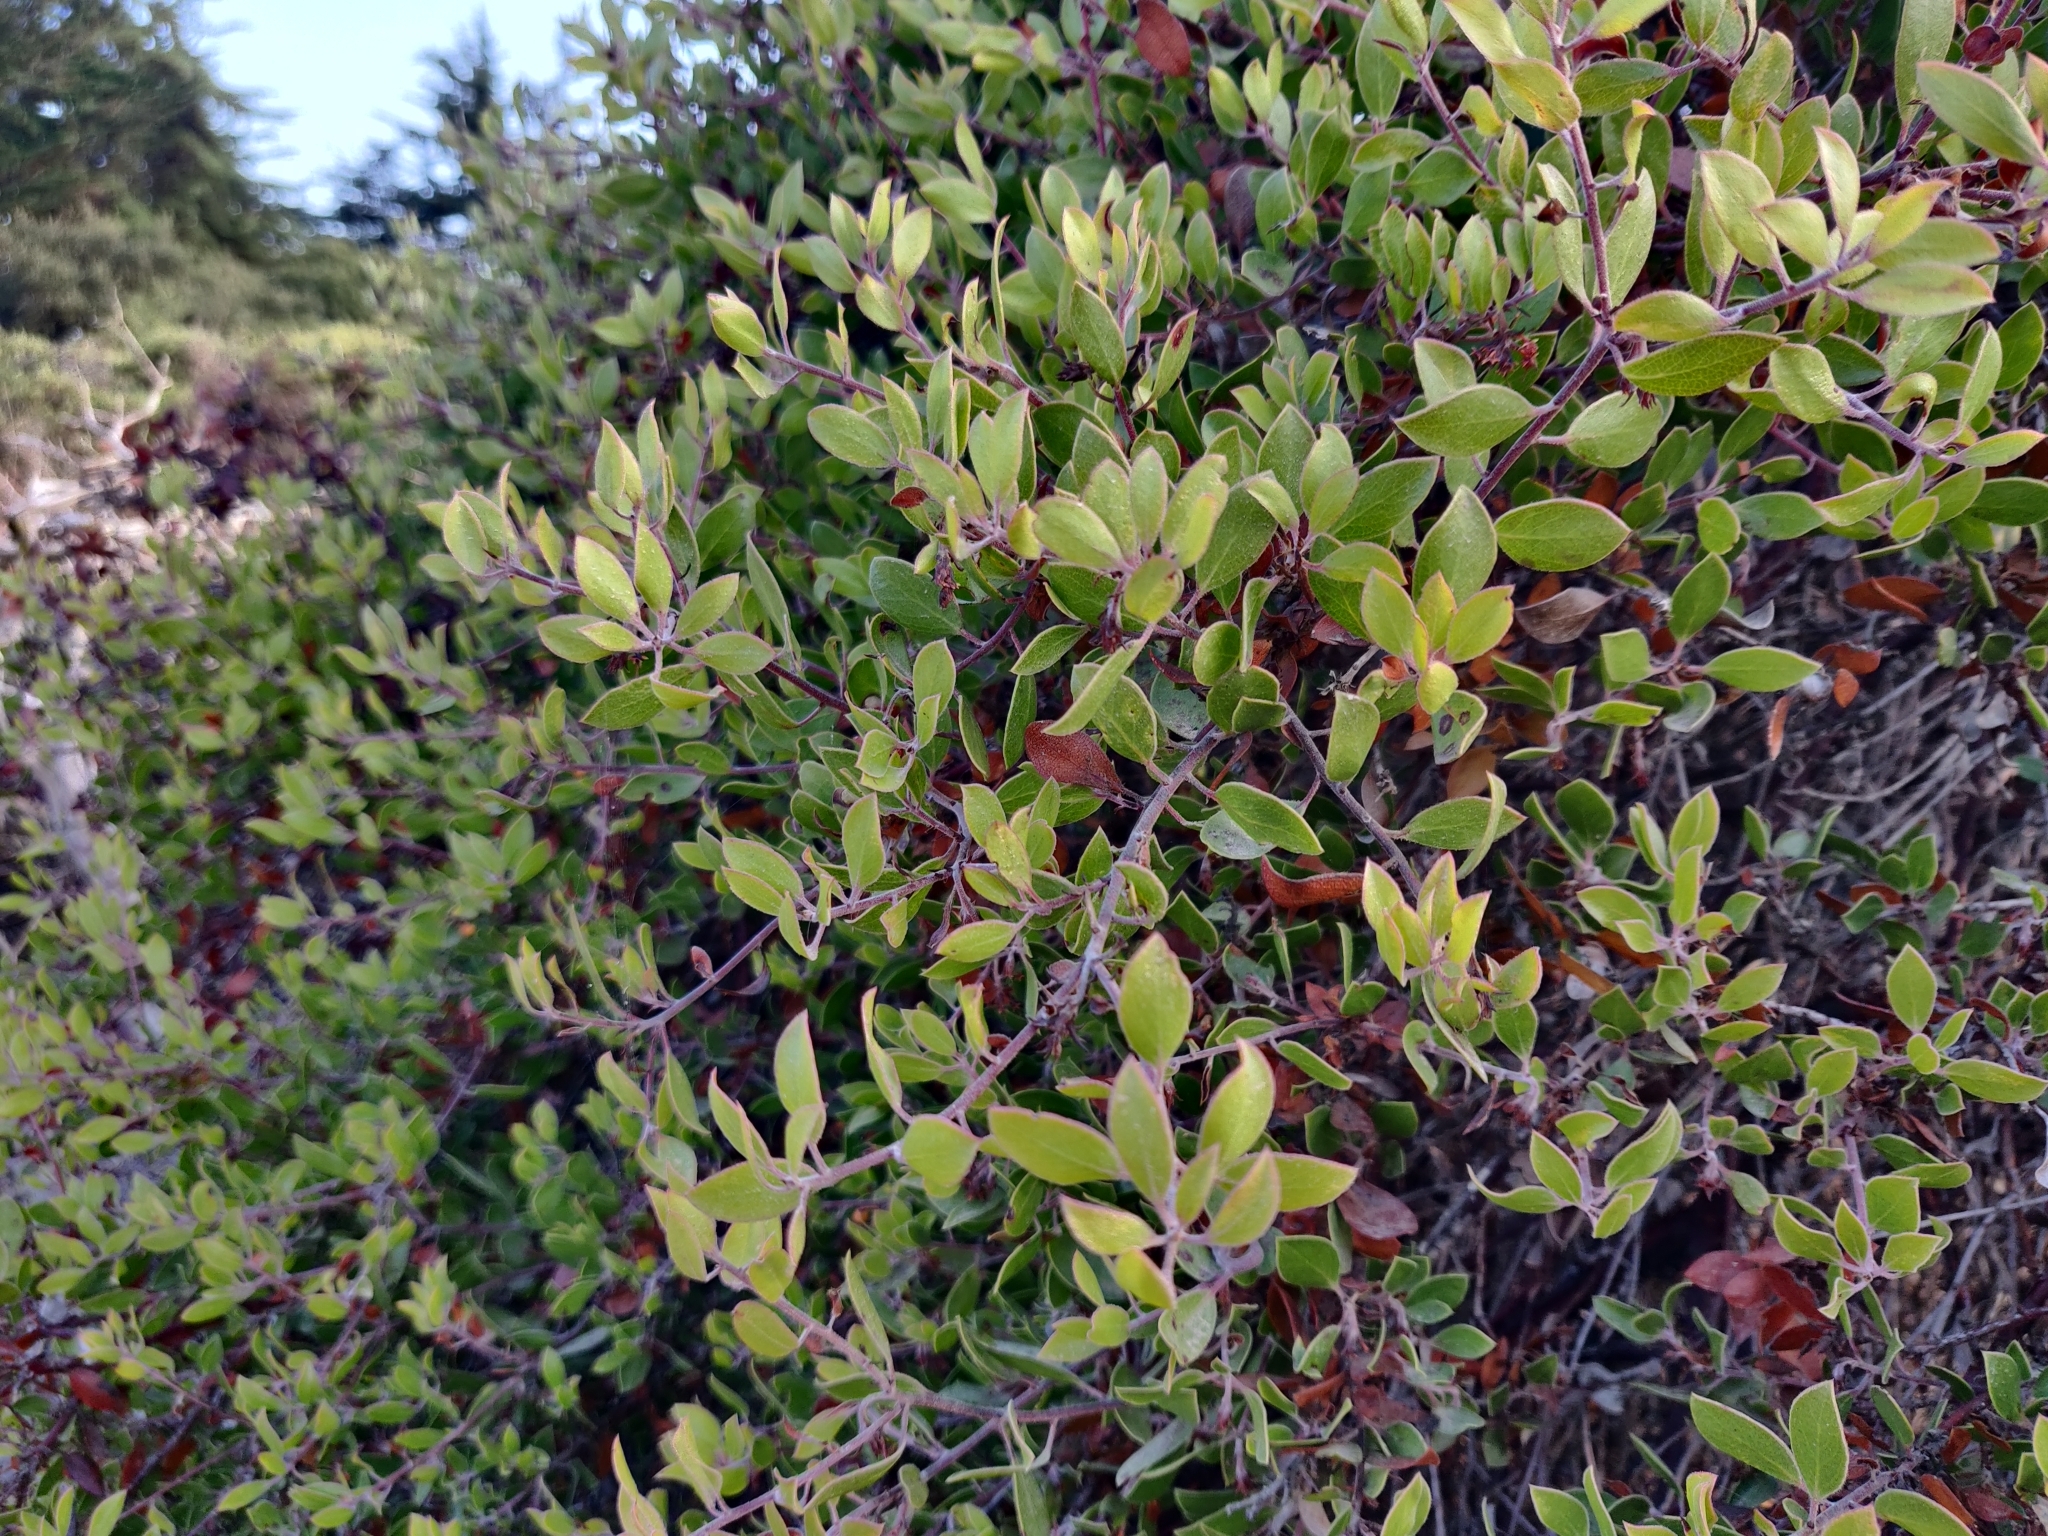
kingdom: Plantae
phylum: Tracheophyta
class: Magnoliopsida
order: Ericales
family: Ericaceae
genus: Arctostaphylos
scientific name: Arctostaphylos hookeri
